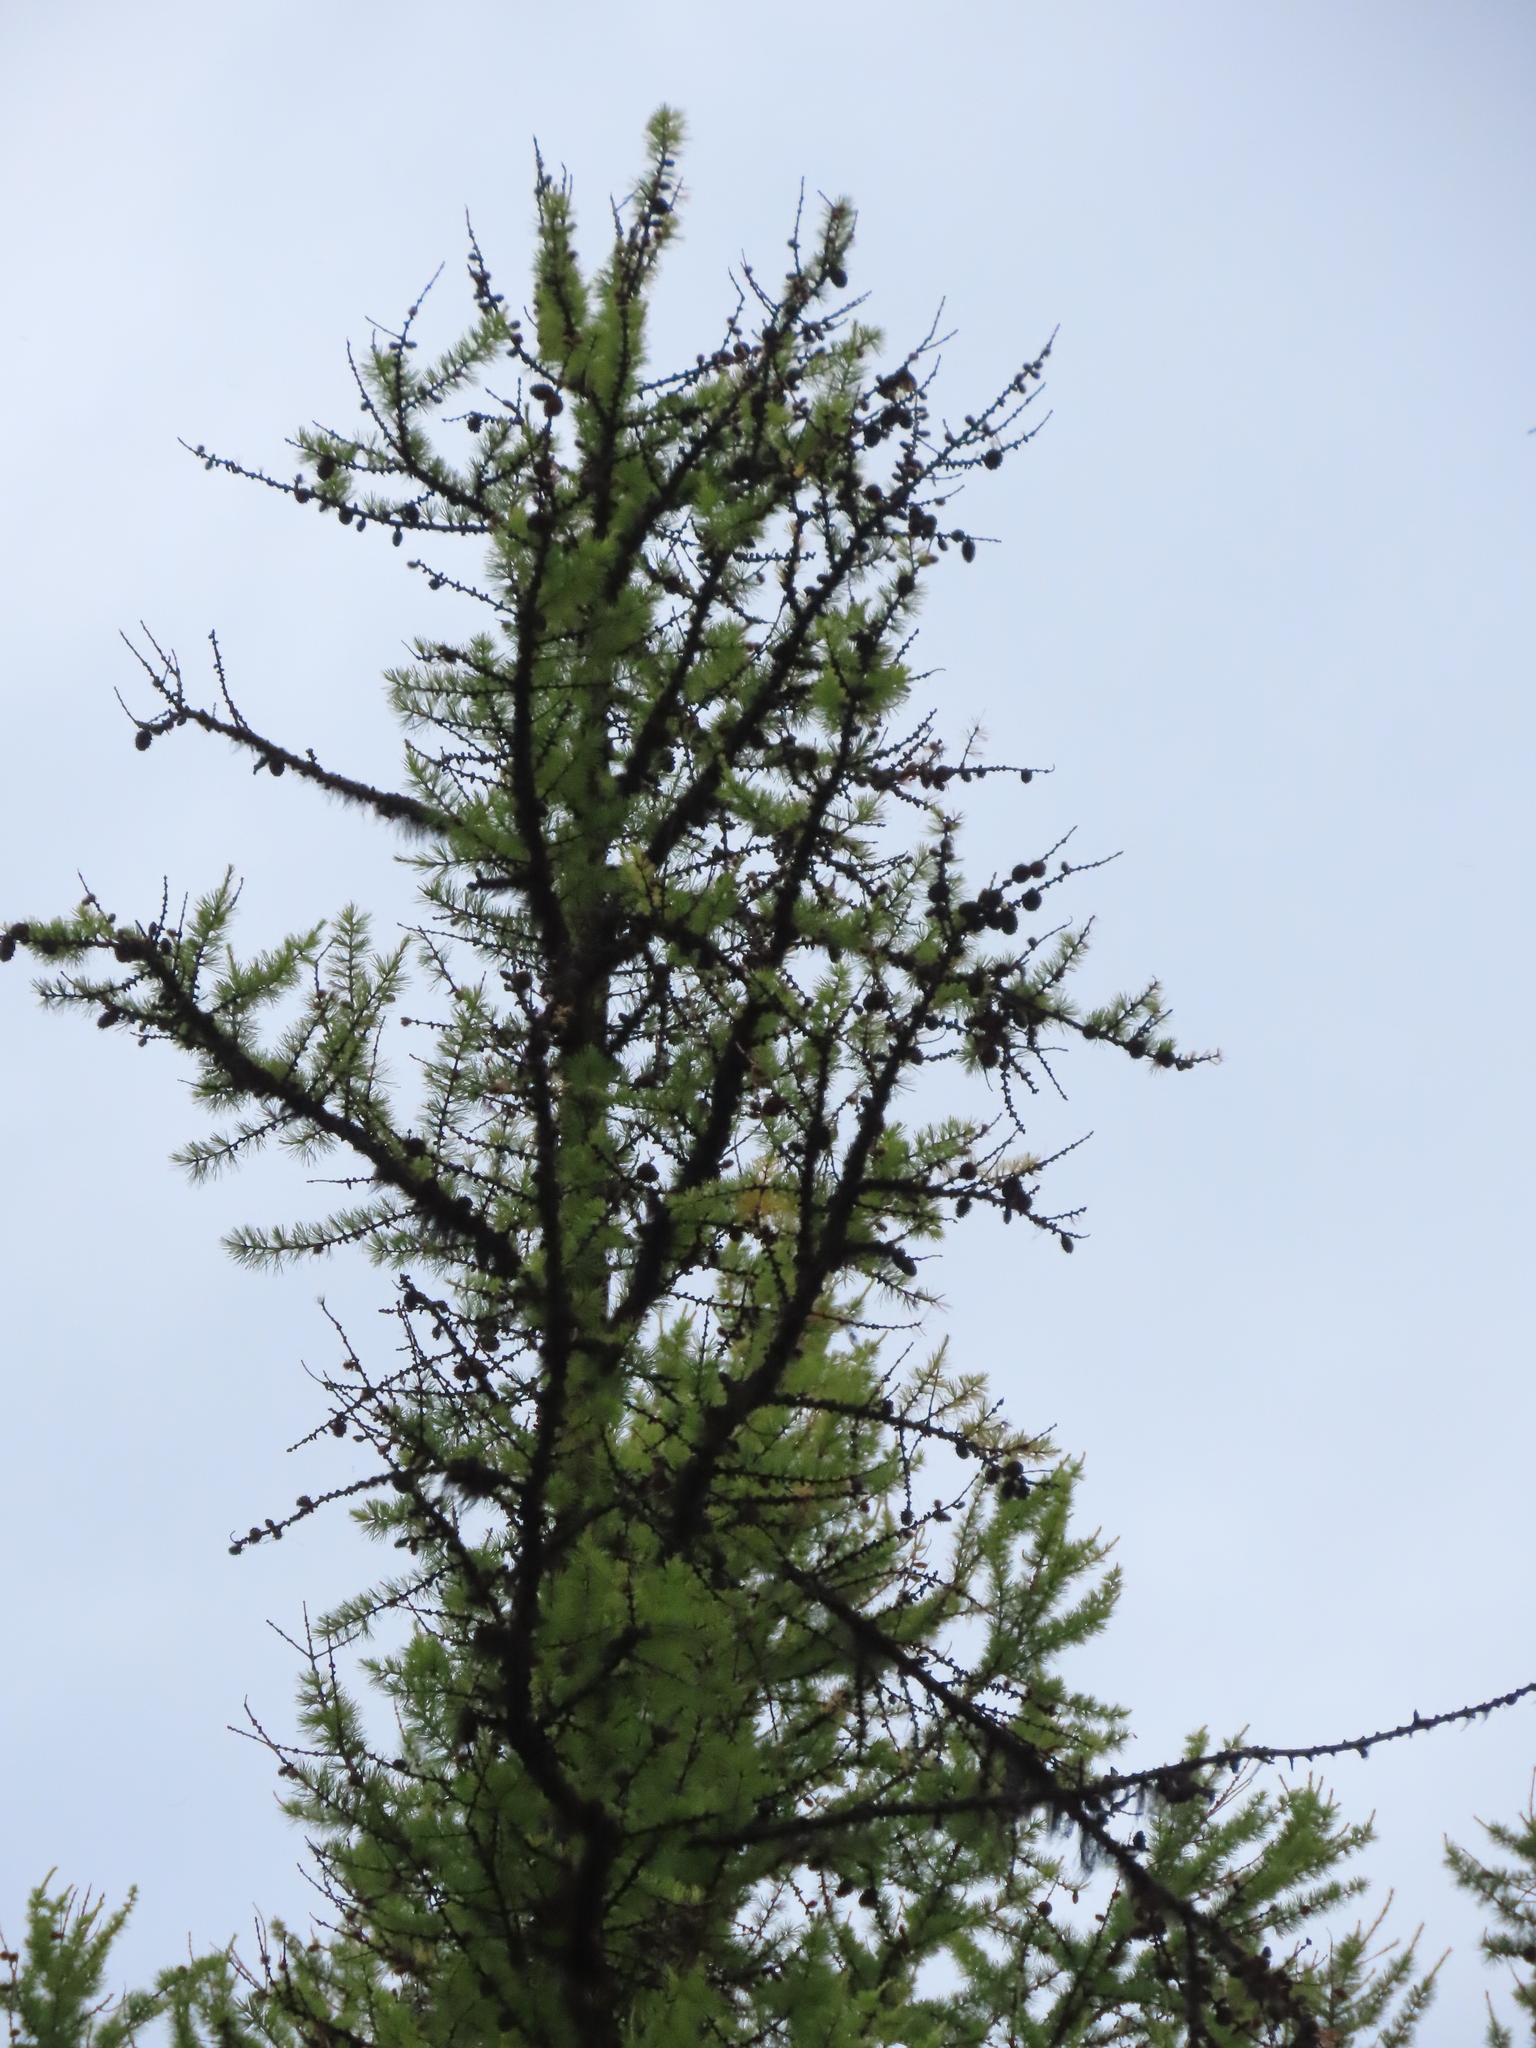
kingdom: Plantae
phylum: Tracheophyta
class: Pinopsida
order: Pinales
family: Pinaceae
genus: Larix
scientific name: Larix occidentalis
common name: Western larch
